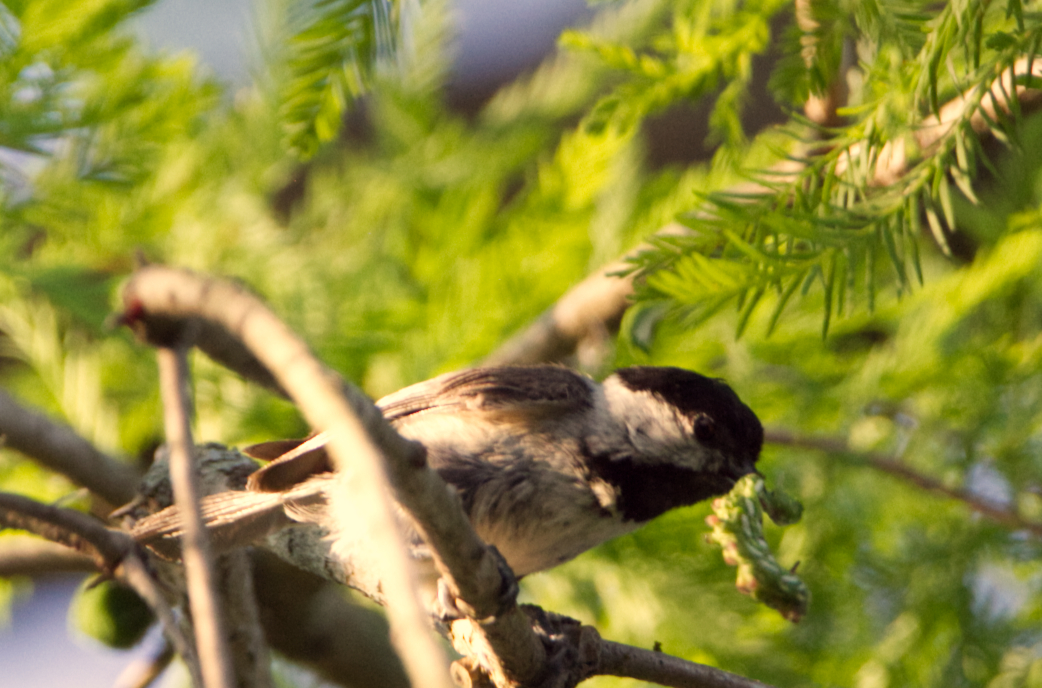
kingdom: Animalia
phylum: Chordata
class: Aves
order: Passeriformes
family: Paridae
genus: Poecile
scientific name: Poecile carolinensis
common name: Carolina chickadee
